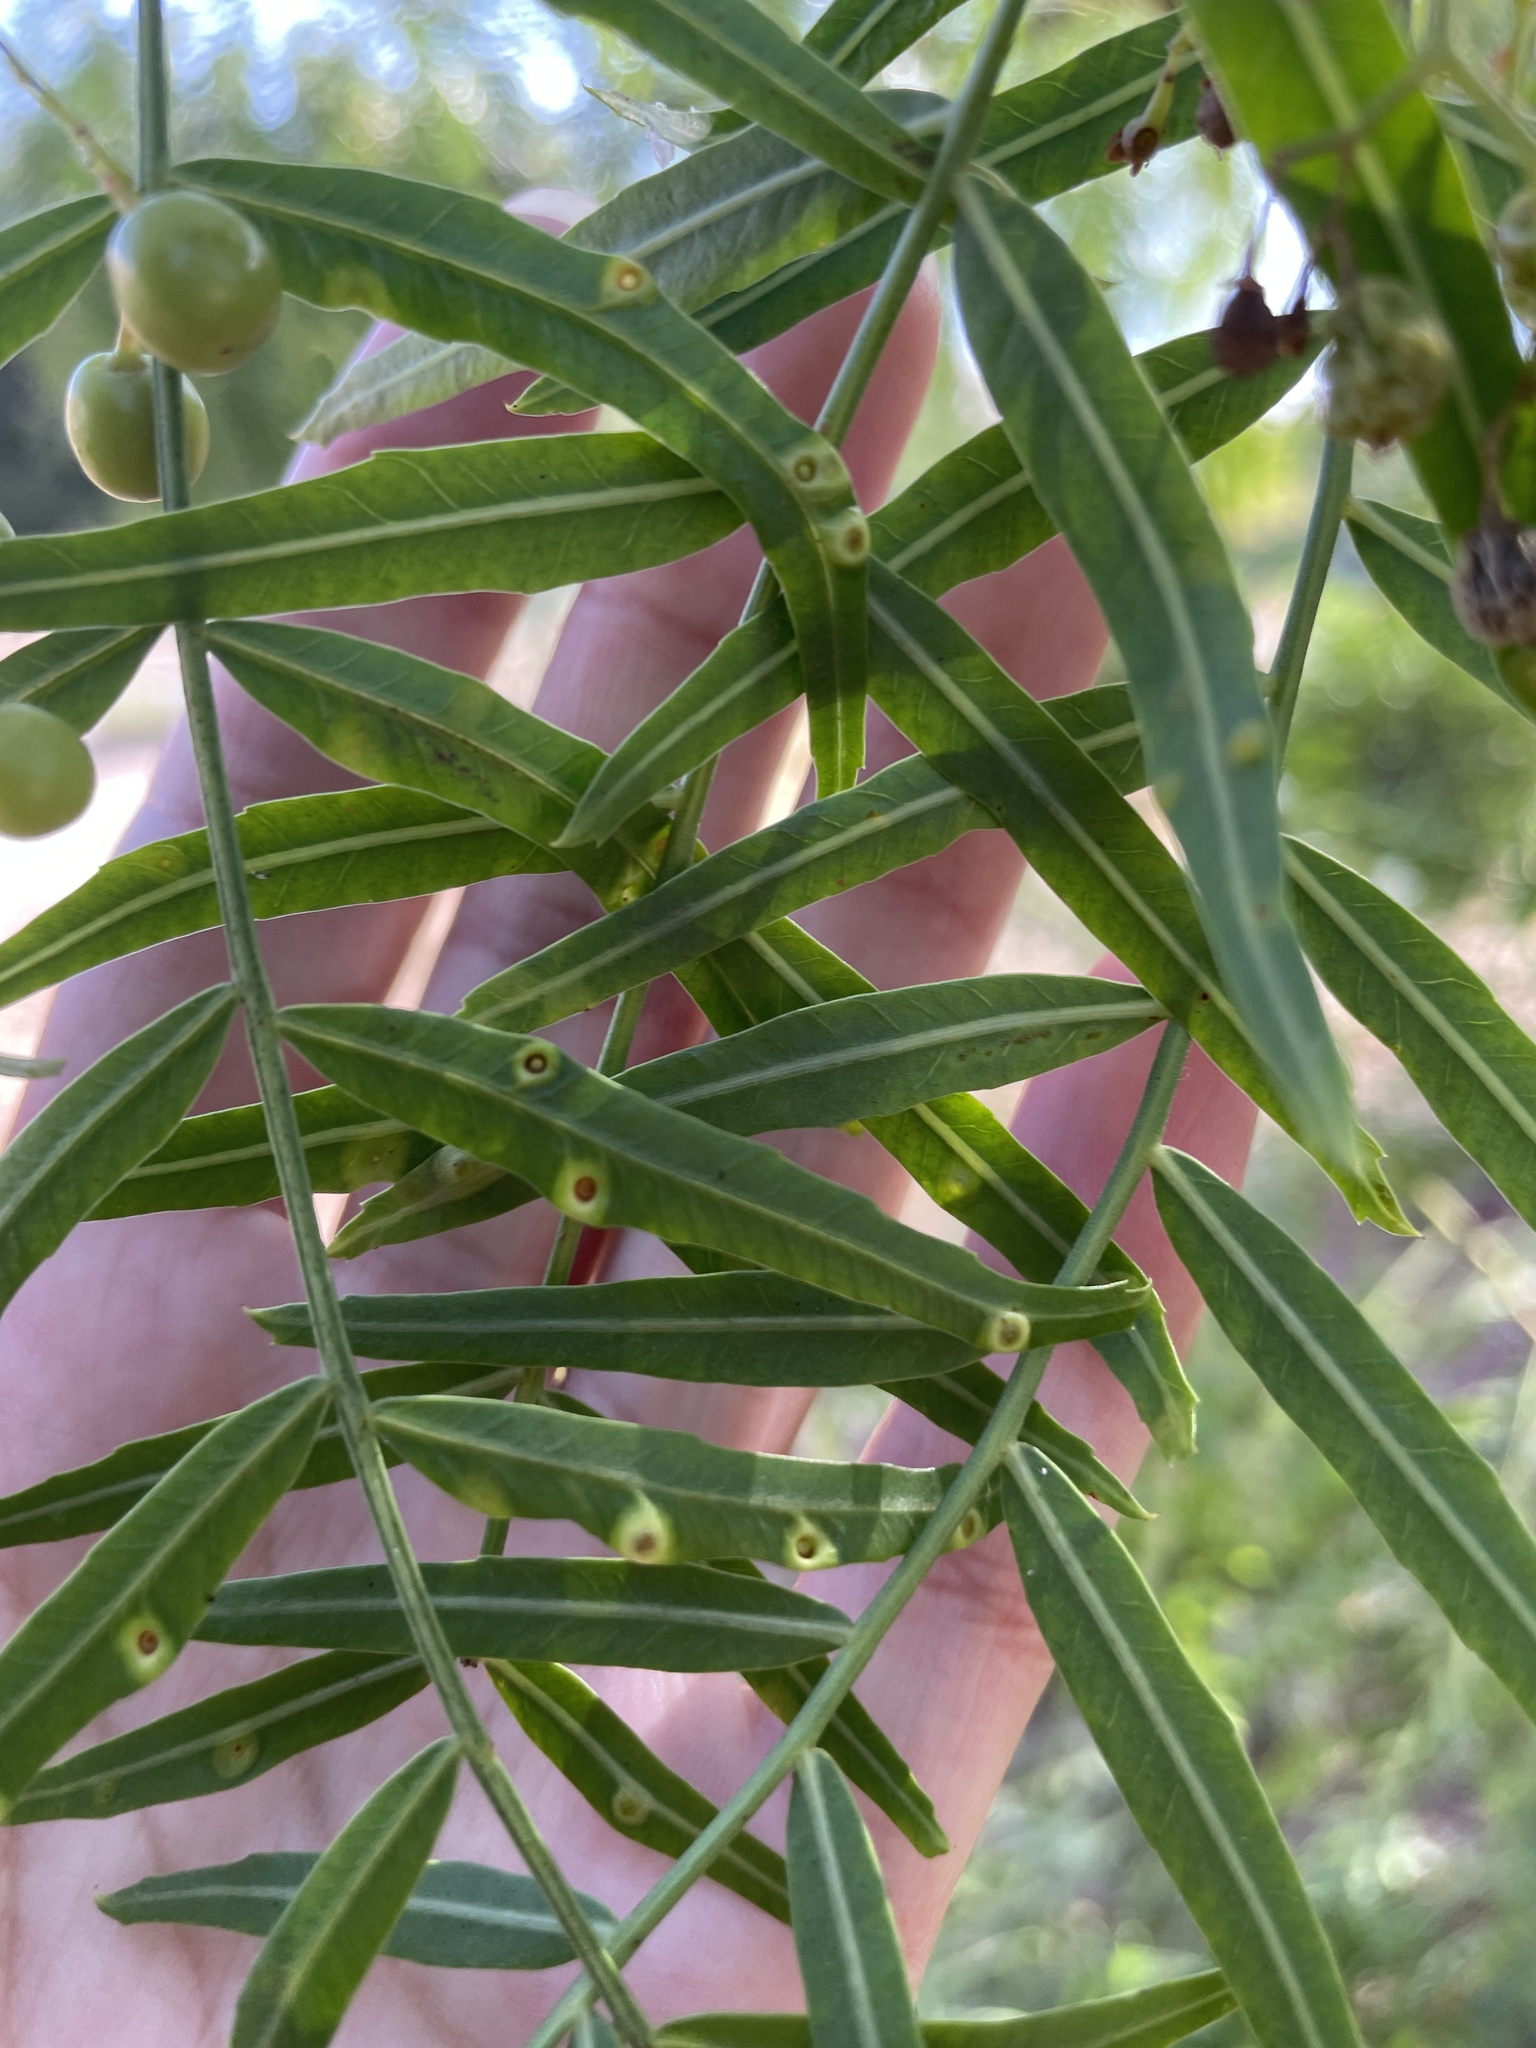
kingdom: Animalia
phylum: Arthropoda
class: Insecta
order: Hemiptera
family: Calophyidae
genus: Calophya
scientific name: Calophya schini
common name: Pepper tree psyllid
